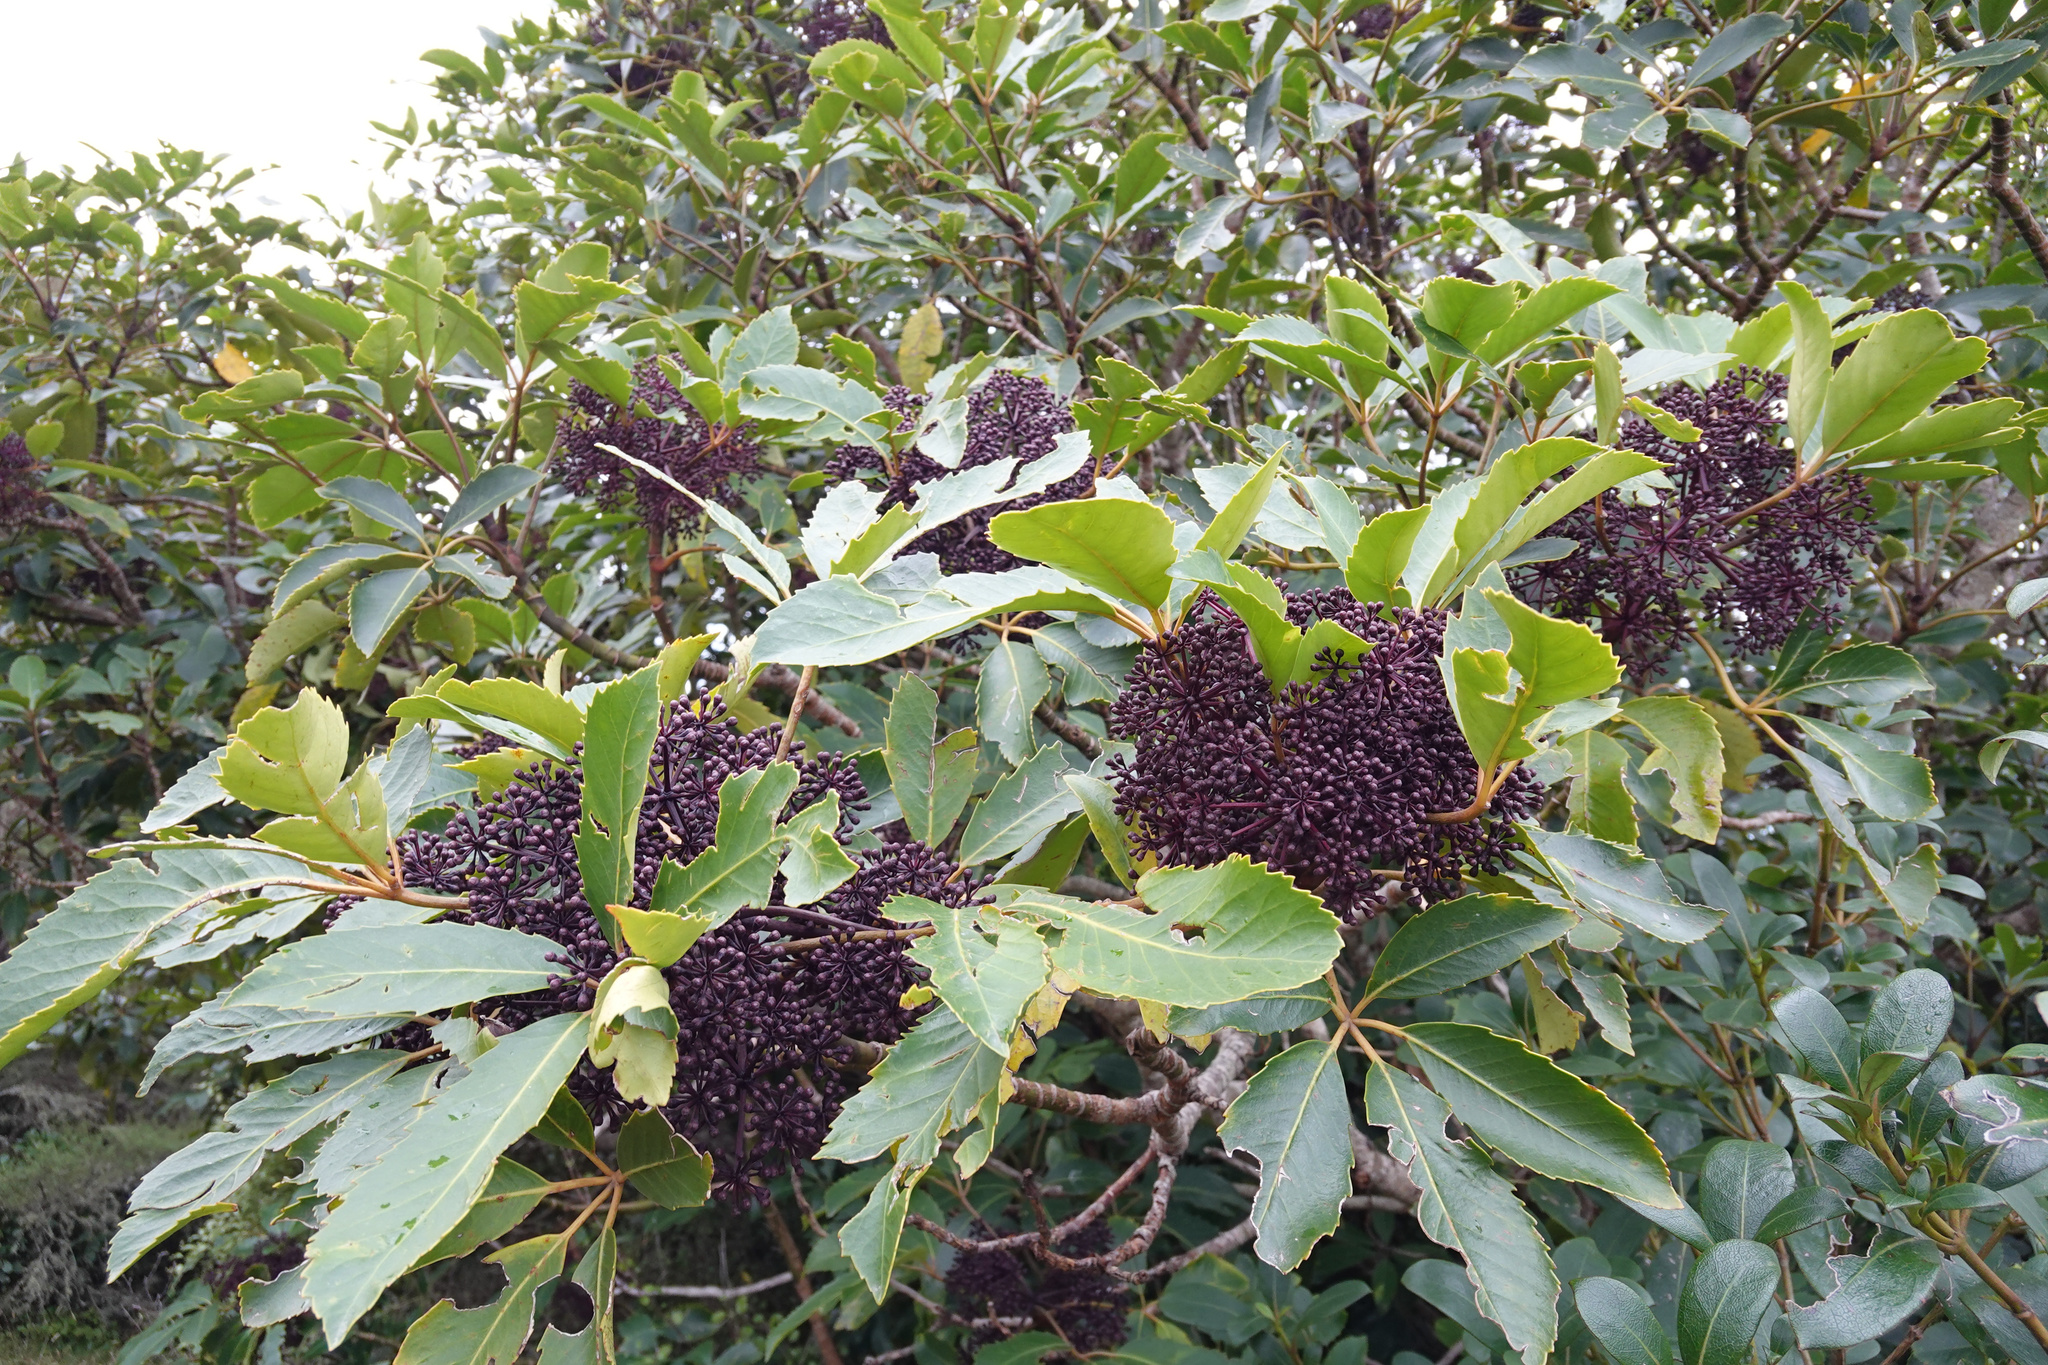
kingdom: Plantae
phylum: Tracheophyta
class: Magnoliopsida
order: Apiales
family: Araliaceae
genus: Neopanax
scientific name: Neopanax arboreus
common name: Five-fingers
